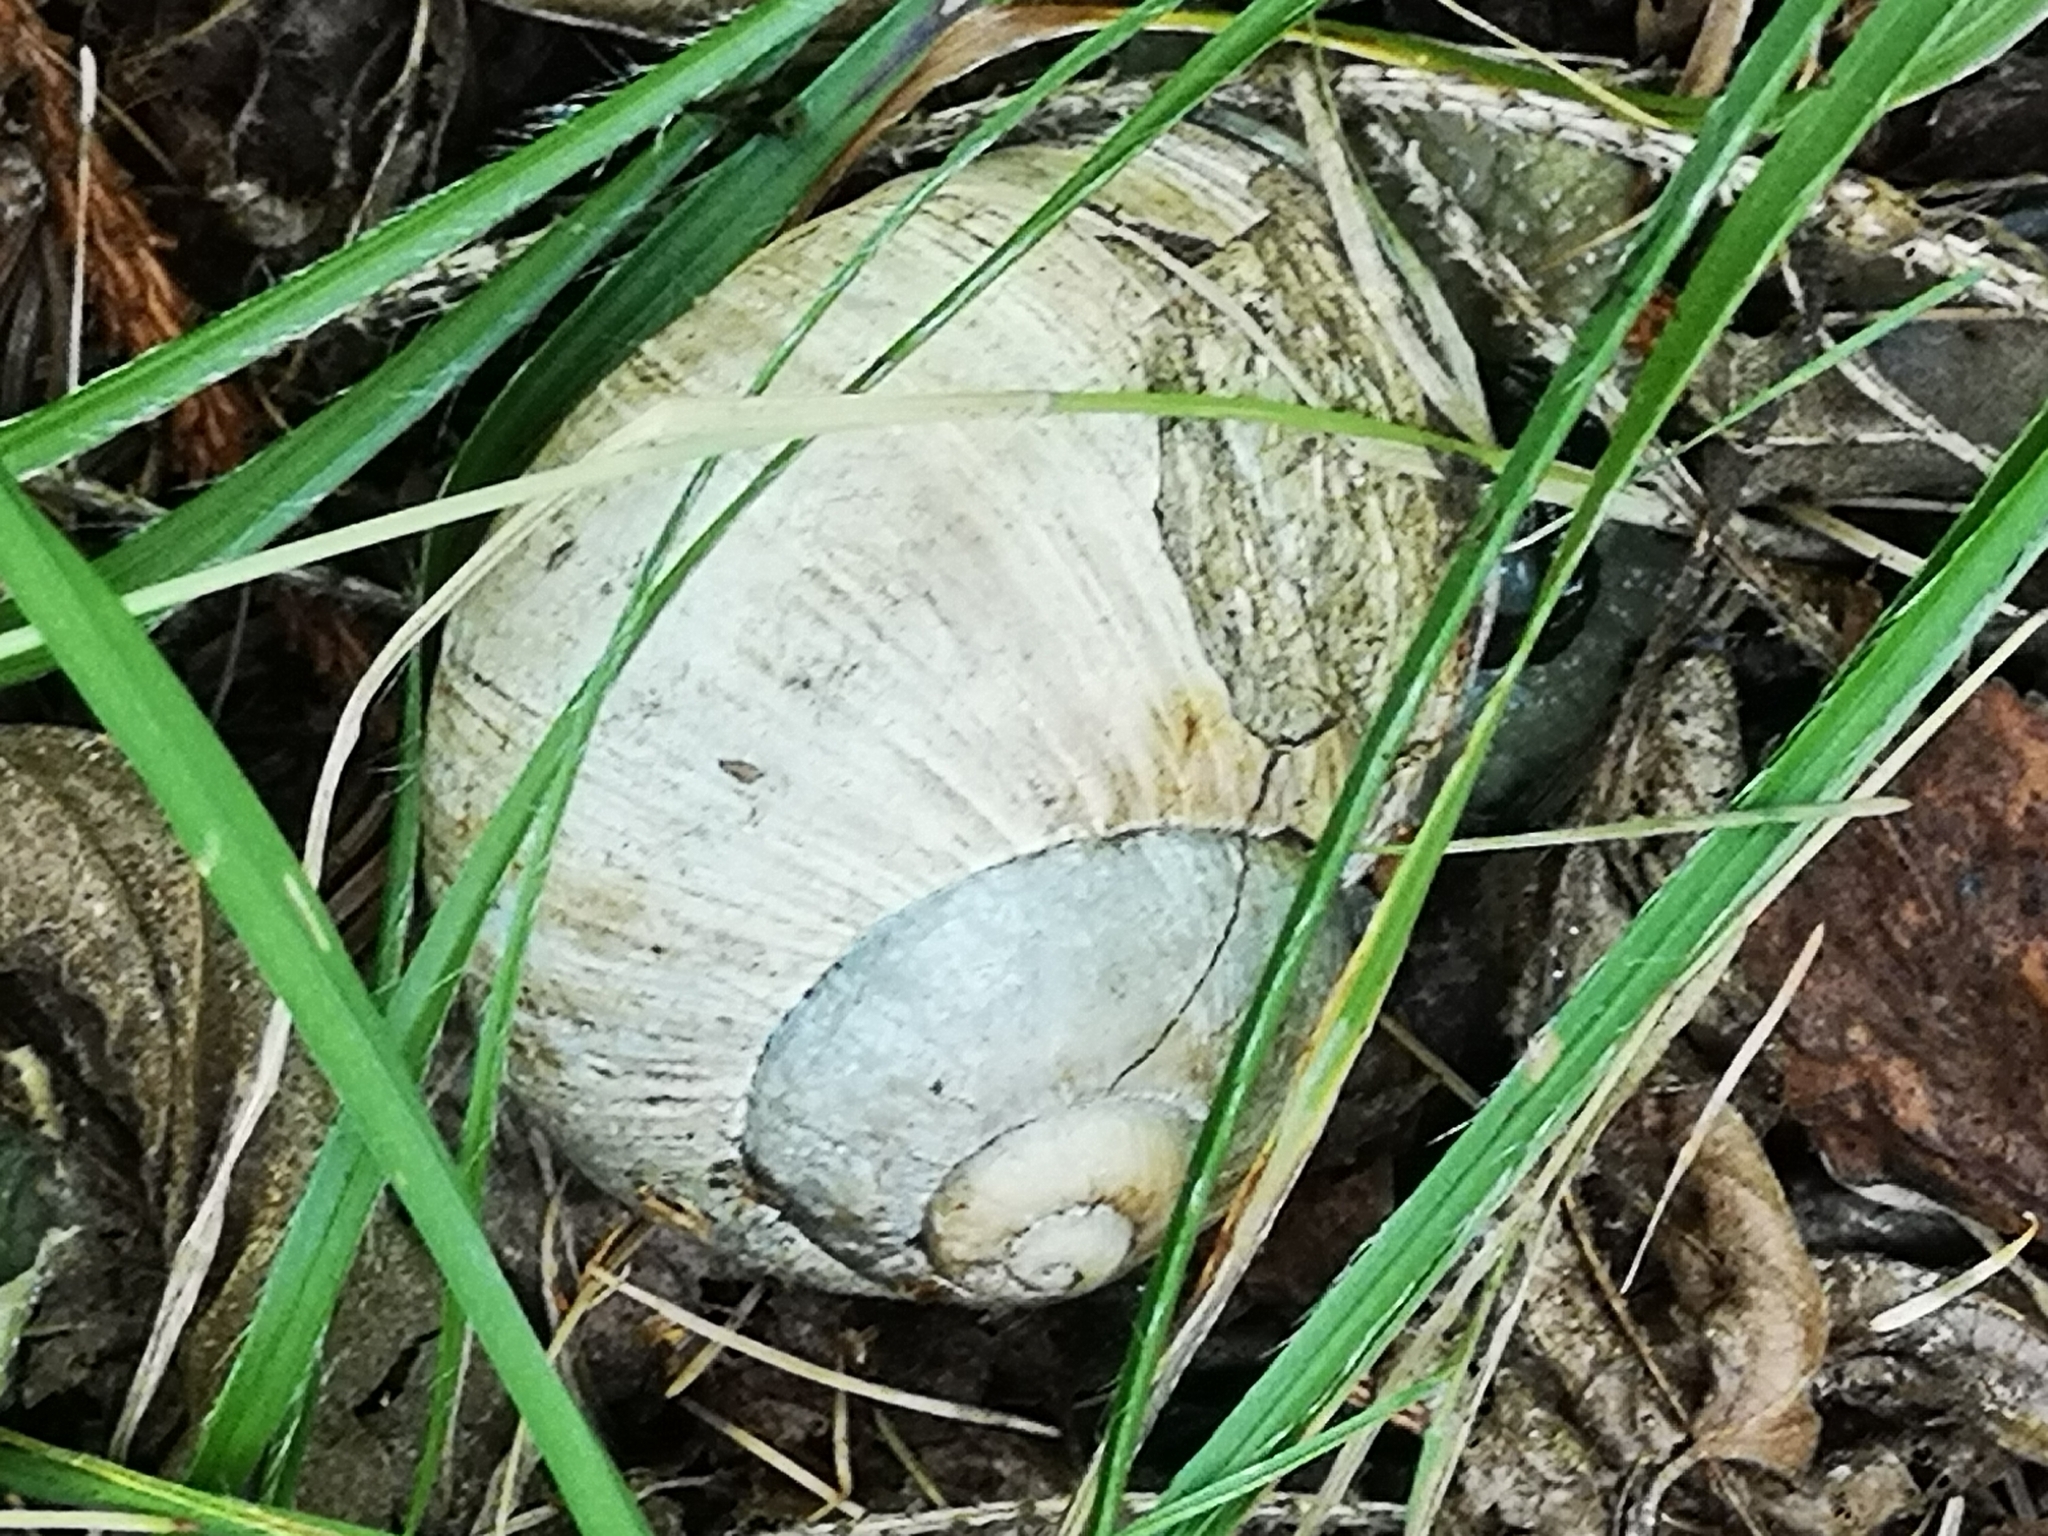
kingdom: Animalia
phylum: Mollusca
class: Gastropoda
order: Stylommatophora
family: Helicidae
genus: Helix
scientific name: Helix pomatia
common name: Roman snail
